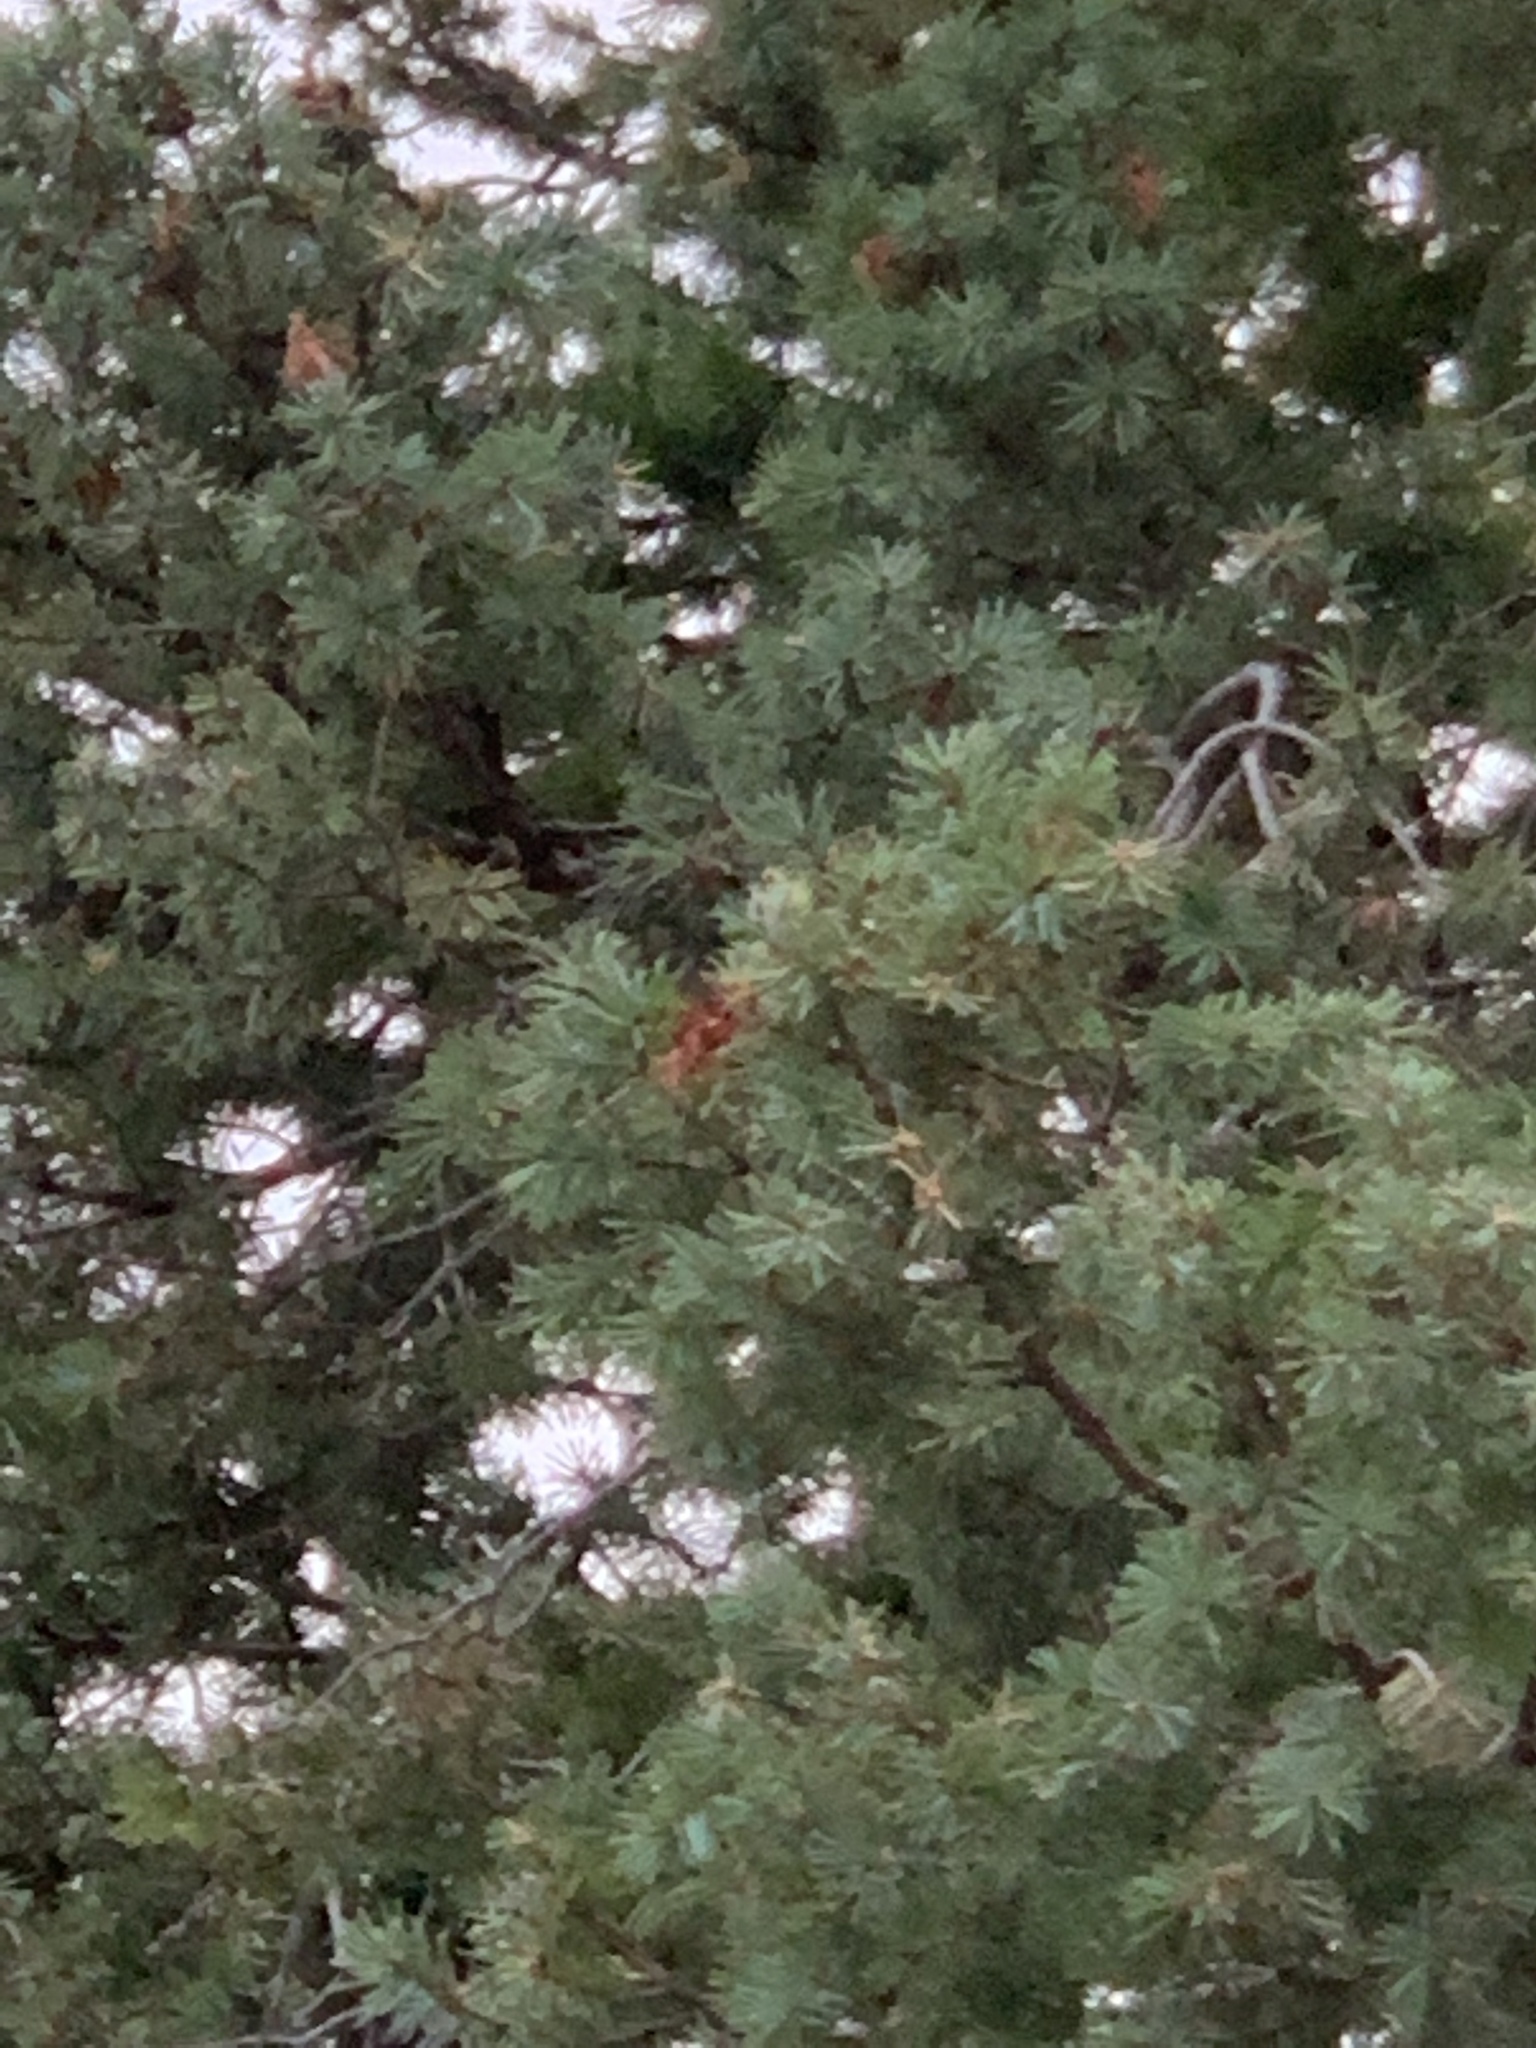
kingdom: Plantae
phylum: Tracheophyta
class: Pinopsida
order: Pinales
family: Pinaceae
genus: Pseudotsuga
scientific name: Pseudotsuga menziesii
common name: Douglas fir
